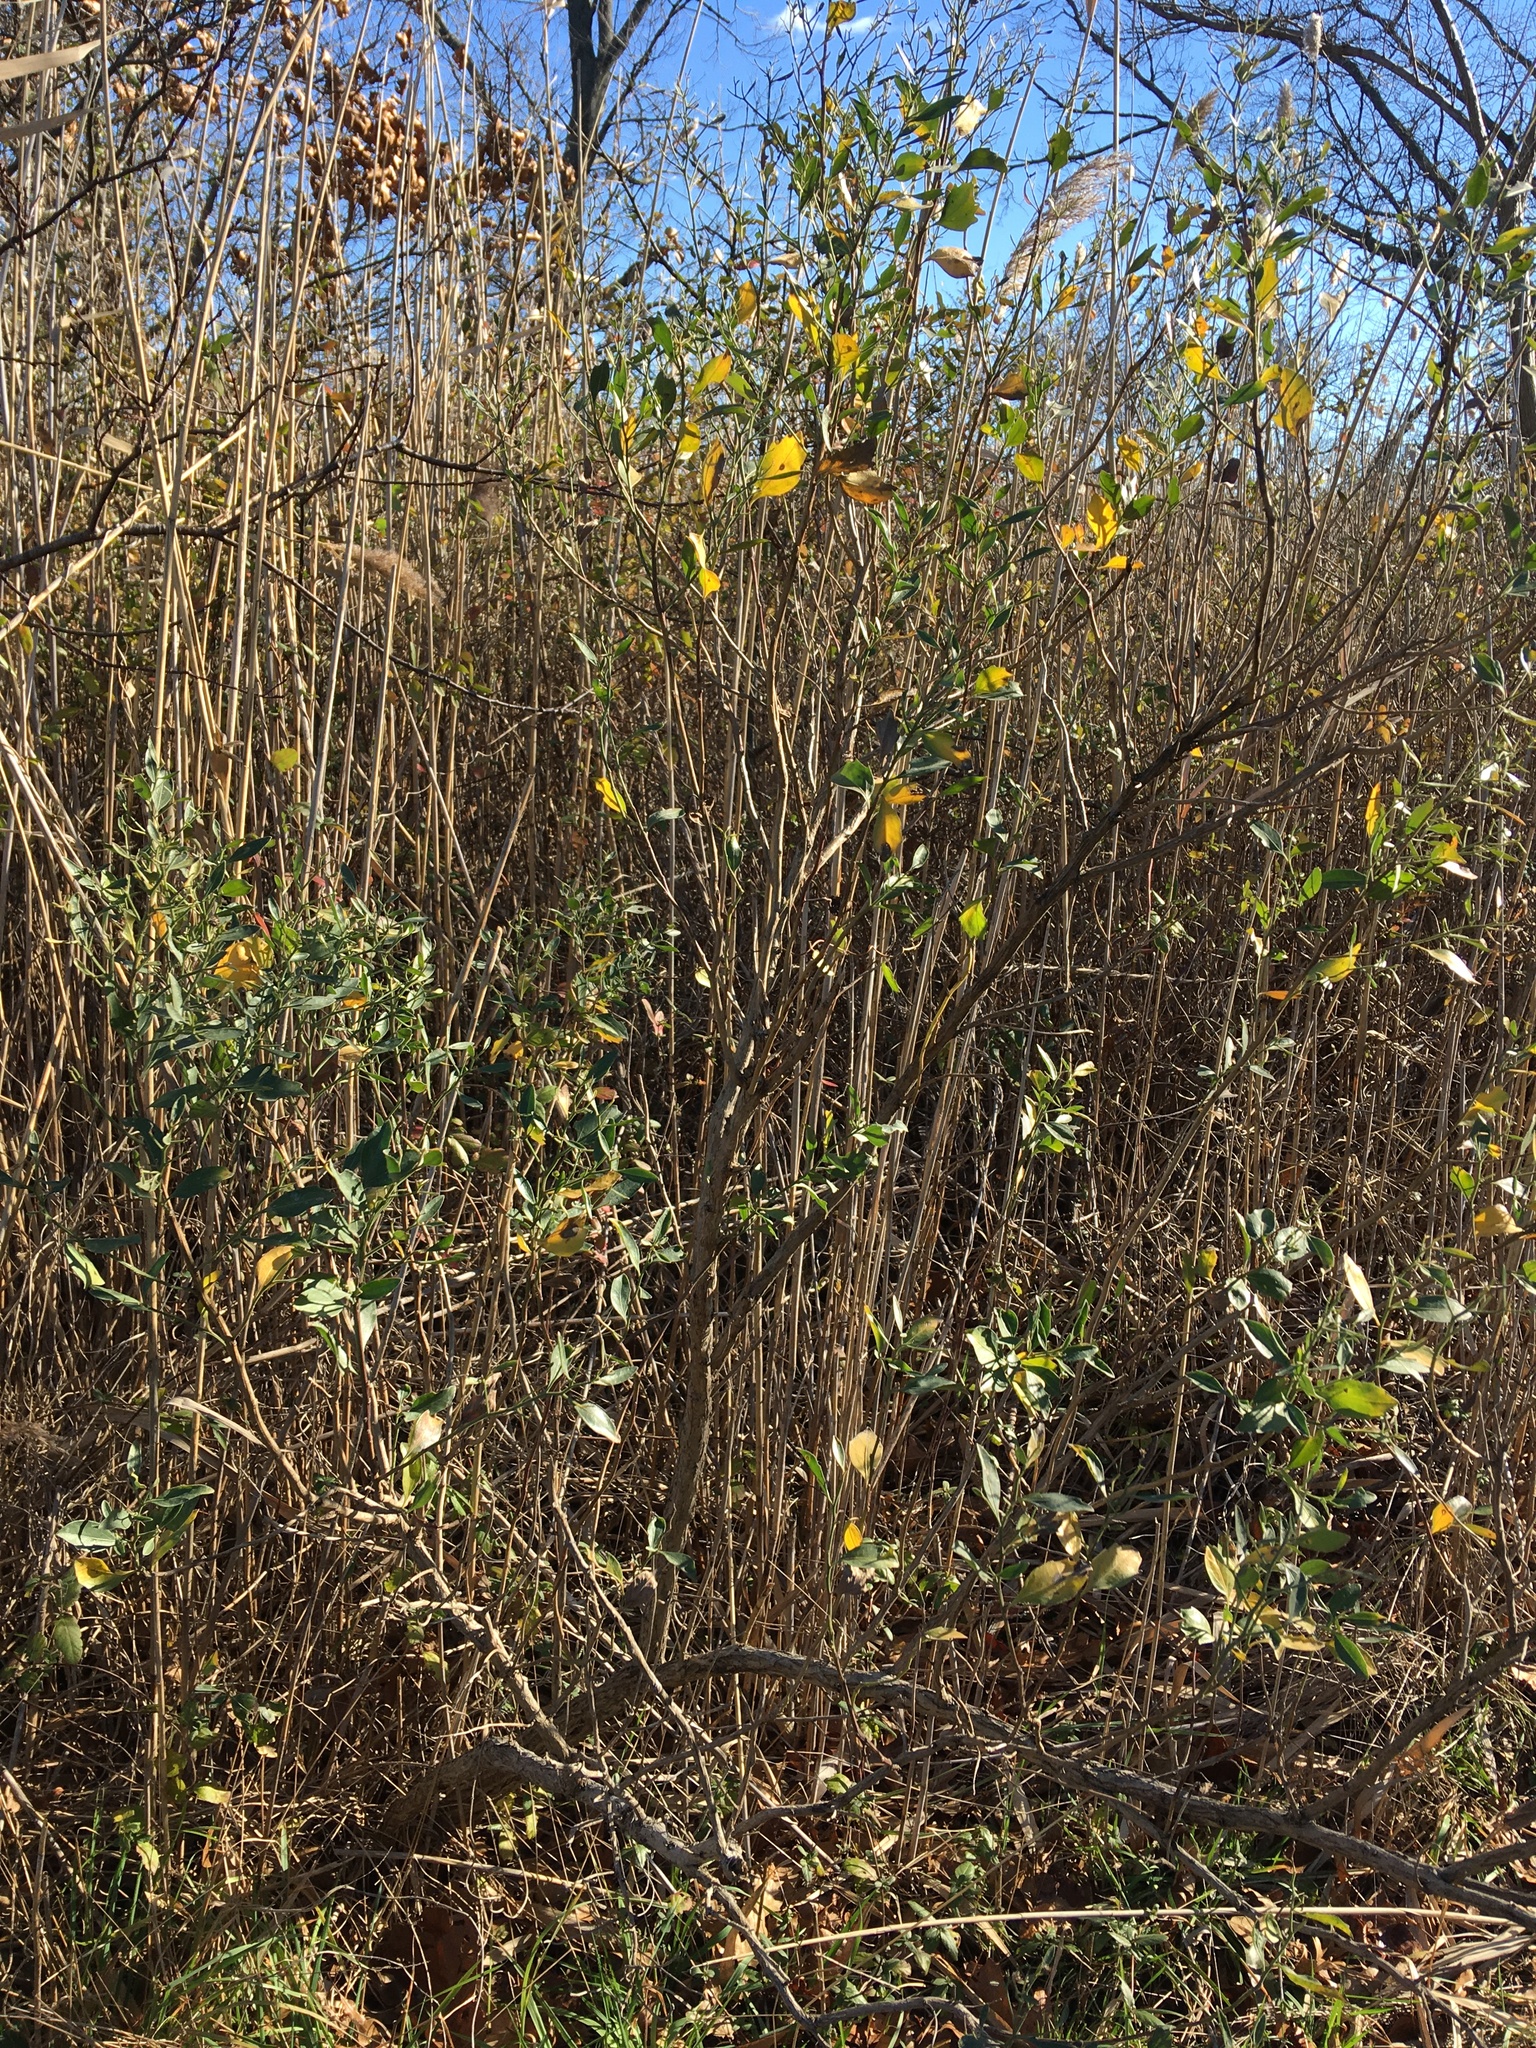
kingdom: Plantae
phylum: Tracheophyta
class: Magnoliopsida
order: Asterales
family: Asteraceae
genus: Baccharis
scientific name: Baccharis halimifolia
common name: Eastern baccharis
